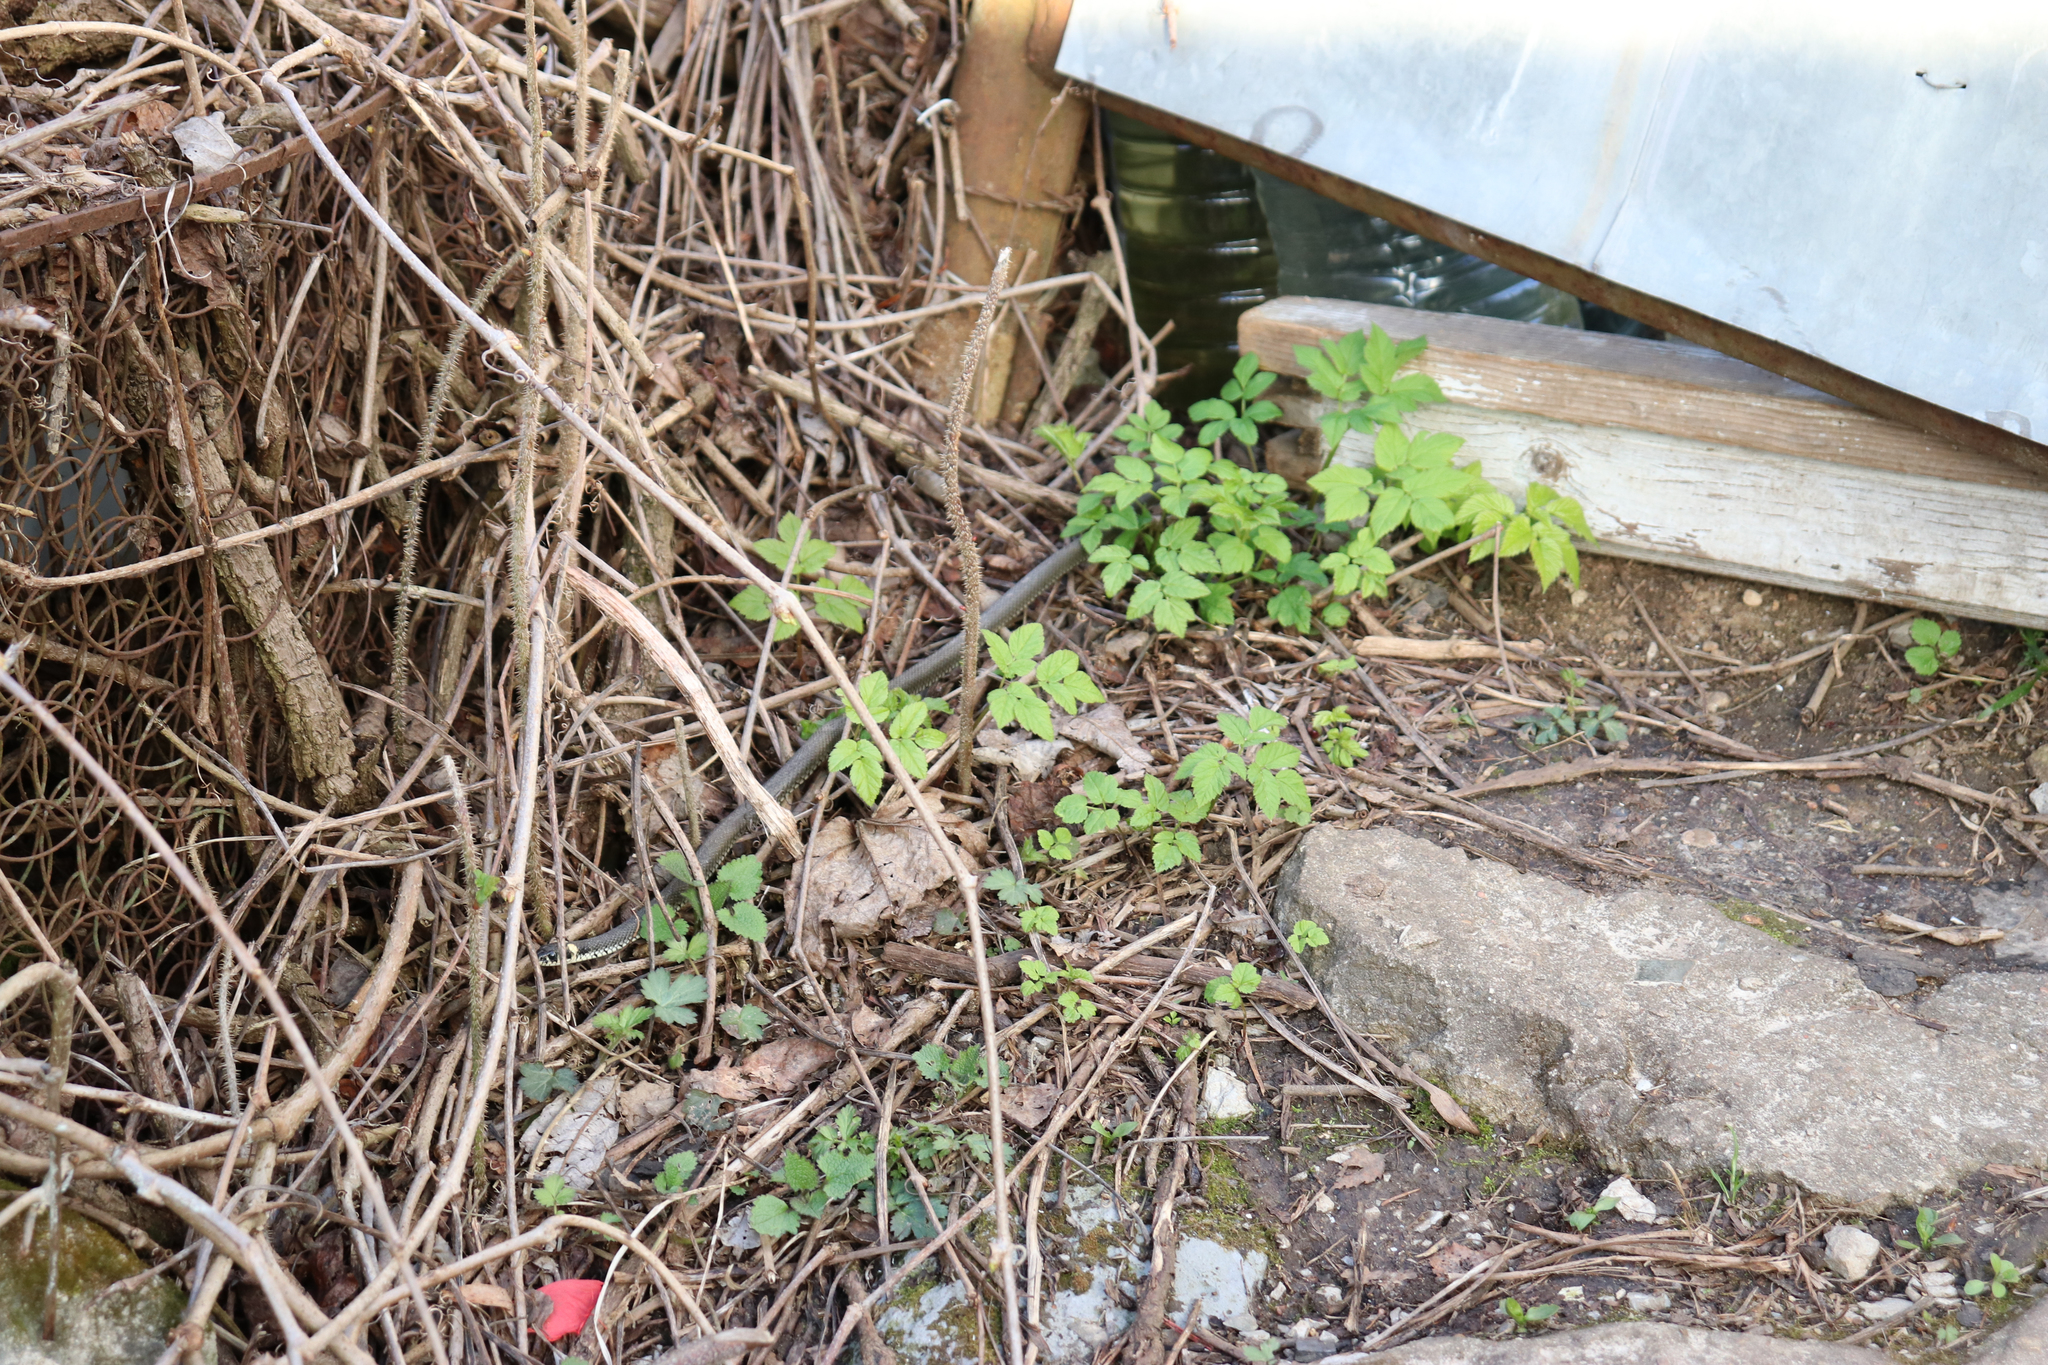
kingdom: Animalia
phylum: Chordata
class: Squamata
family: Colubridae
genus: Natrix
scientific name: Natrix natrix
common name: Grass snake
